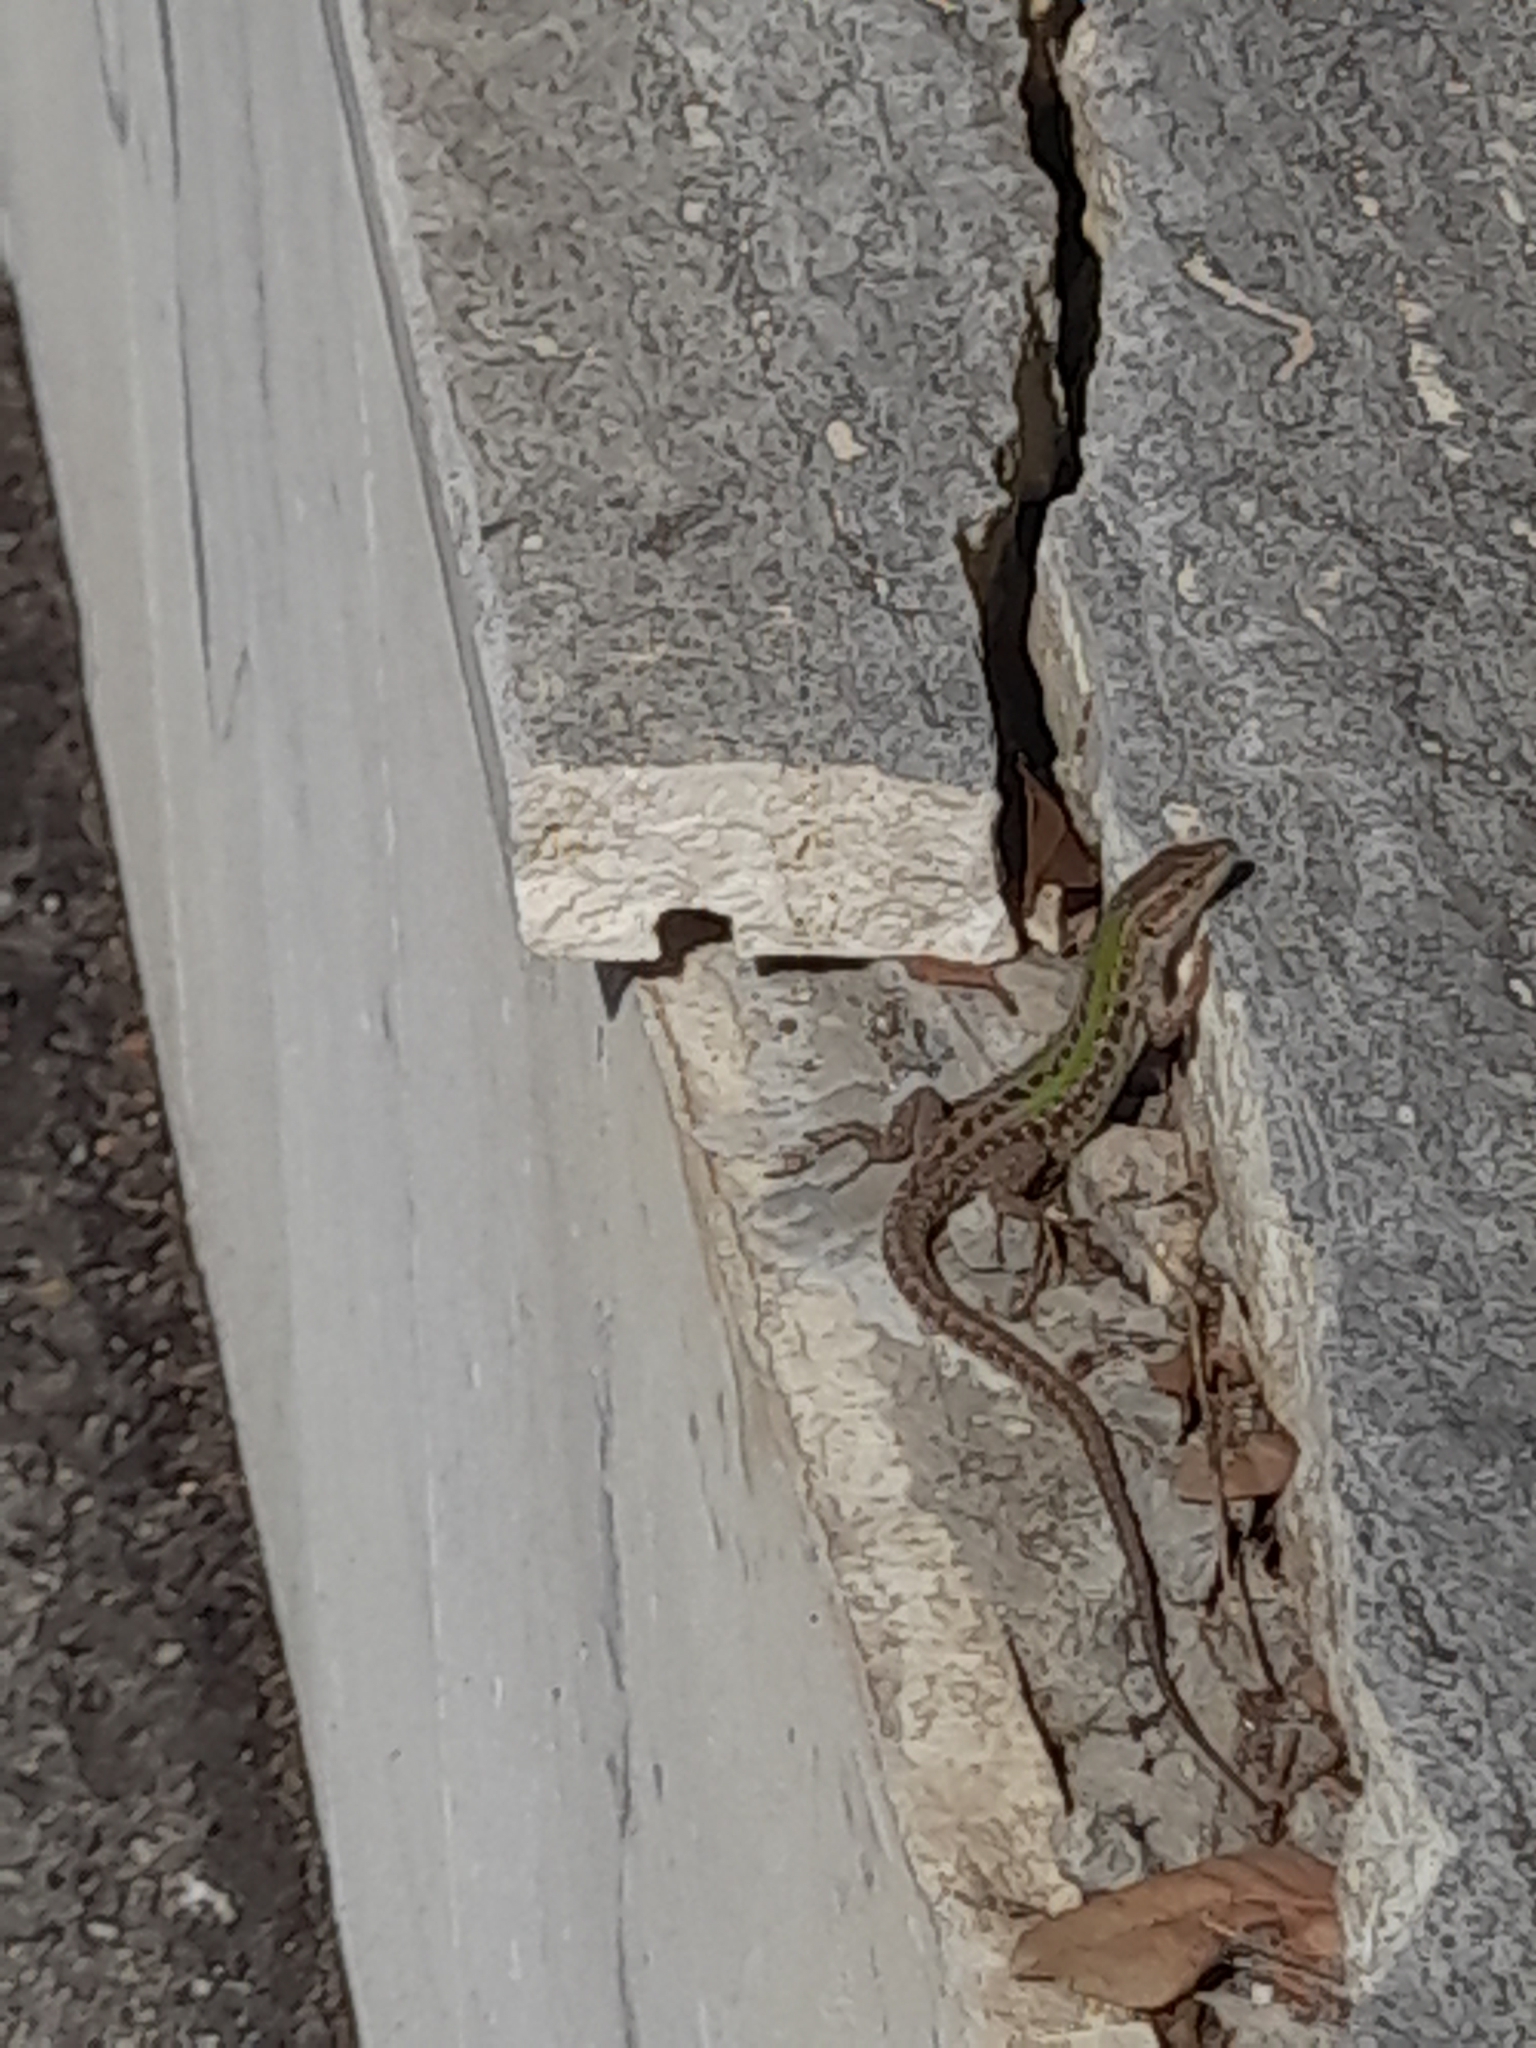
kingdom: Animalia
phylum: Chordata
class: Squamata
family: Lacertidae
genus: Podarcis
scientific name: Podarcis siculus
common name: Italian wall lizard
